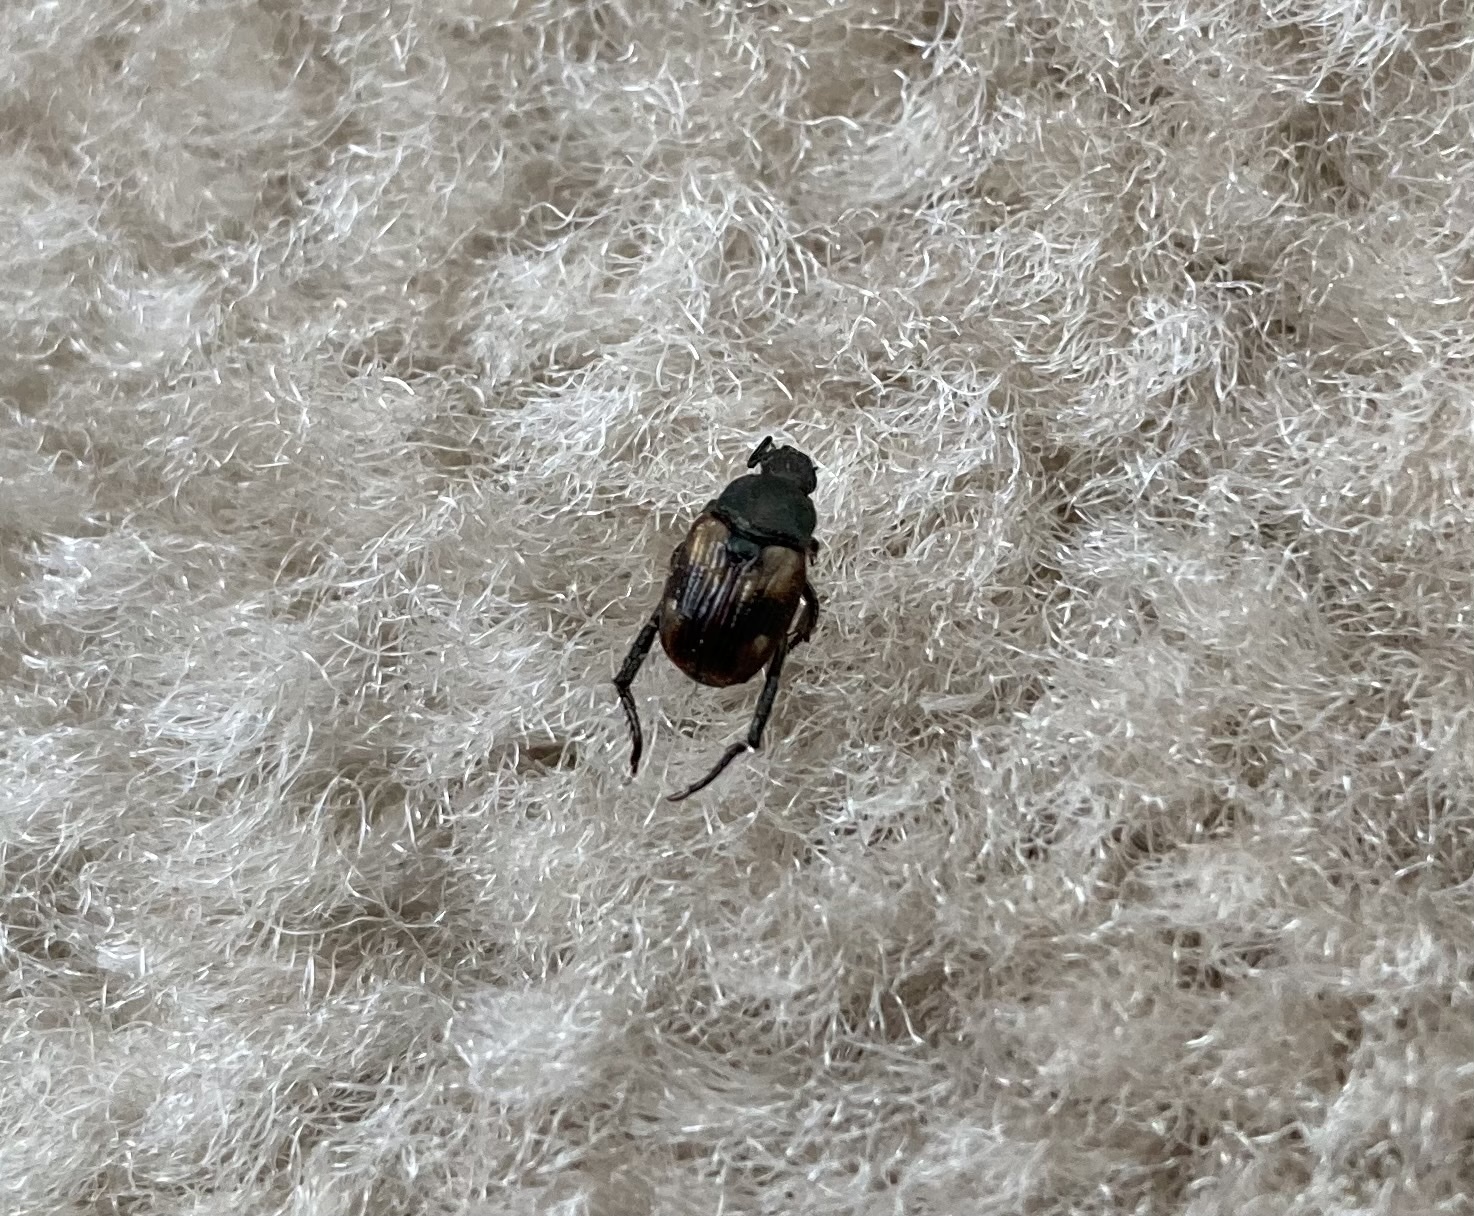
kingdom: Animalia
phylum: Arthropoda
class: Insecta
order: Coleoptera
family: Scarabaeidae
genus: Strigoderma
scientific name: Strigoderma pygmaea
